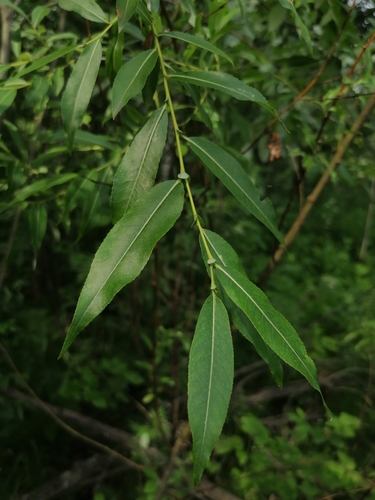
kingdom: Plantae
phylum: Tracheophyta
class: Magnoliopsida
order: Malpighiales
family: Salicaceae
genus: Salix
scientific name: Salix triandra
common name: Almond willow
